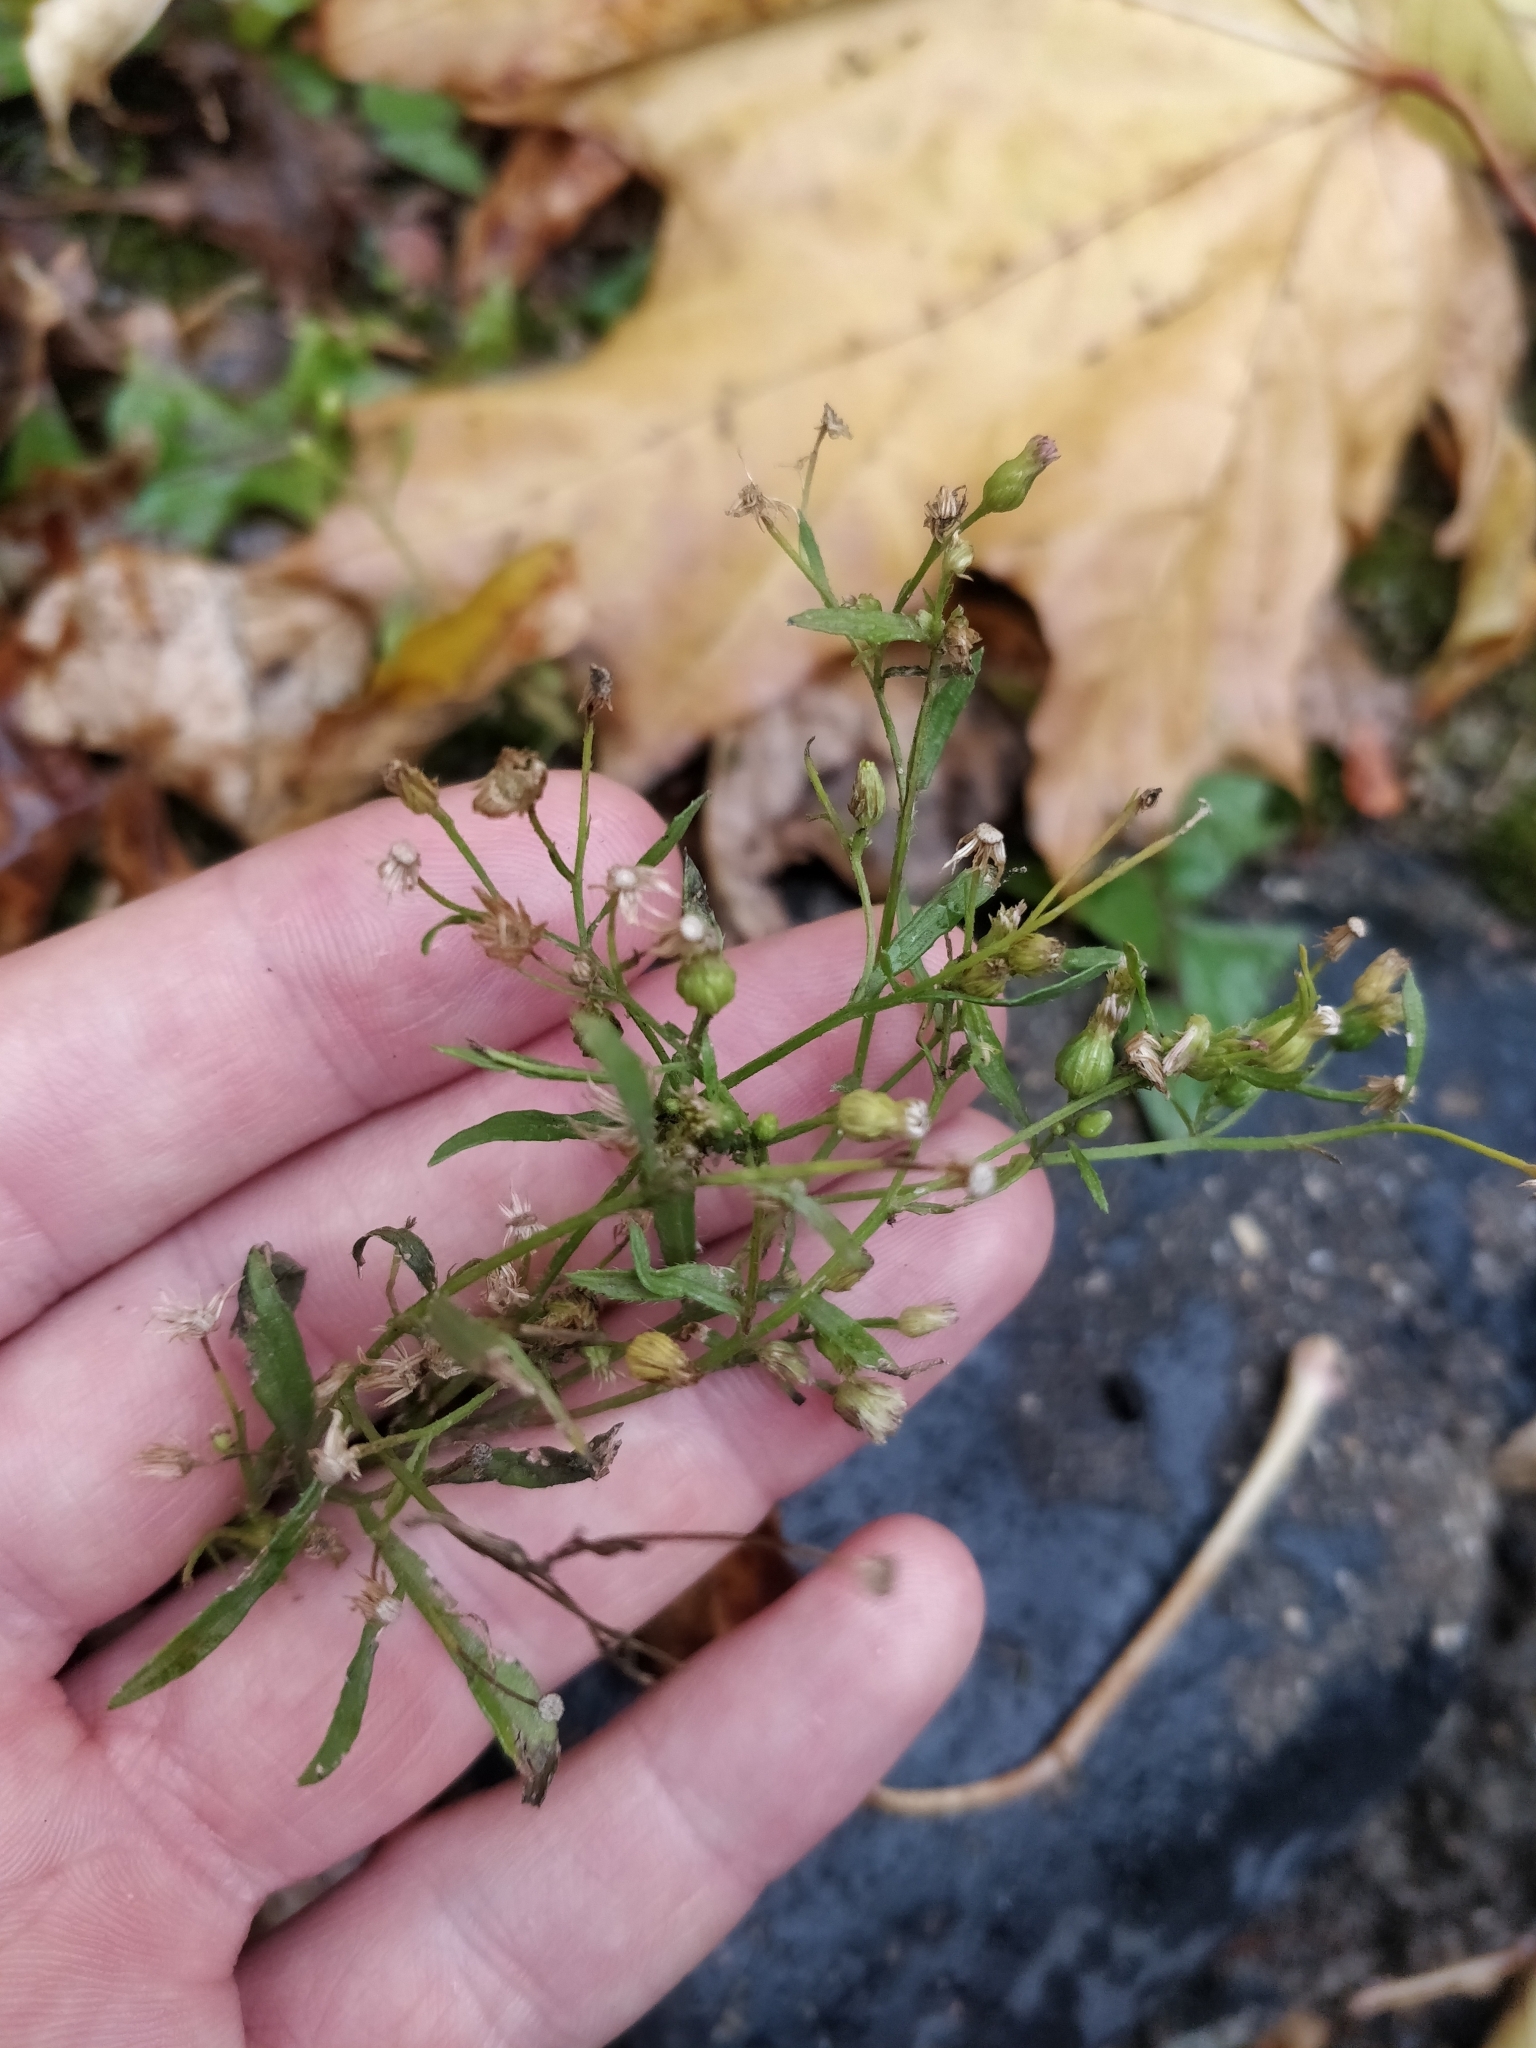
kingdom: Plantae
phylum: Tracheophyta
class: Magnoliopsida
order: Asterales
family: Asteraceae
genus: Erigeron
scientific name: Erigeron canadensis
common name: Canadian fleabane
